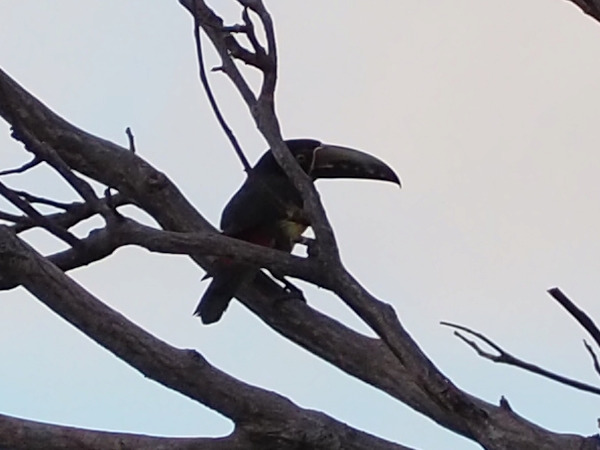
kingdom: Animalia
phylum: Chordata
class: Aves
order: Piciformes
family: Ramphastidae
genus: Pteroglossus
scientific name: Pteroglossus torquatus
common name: Collared aracari
